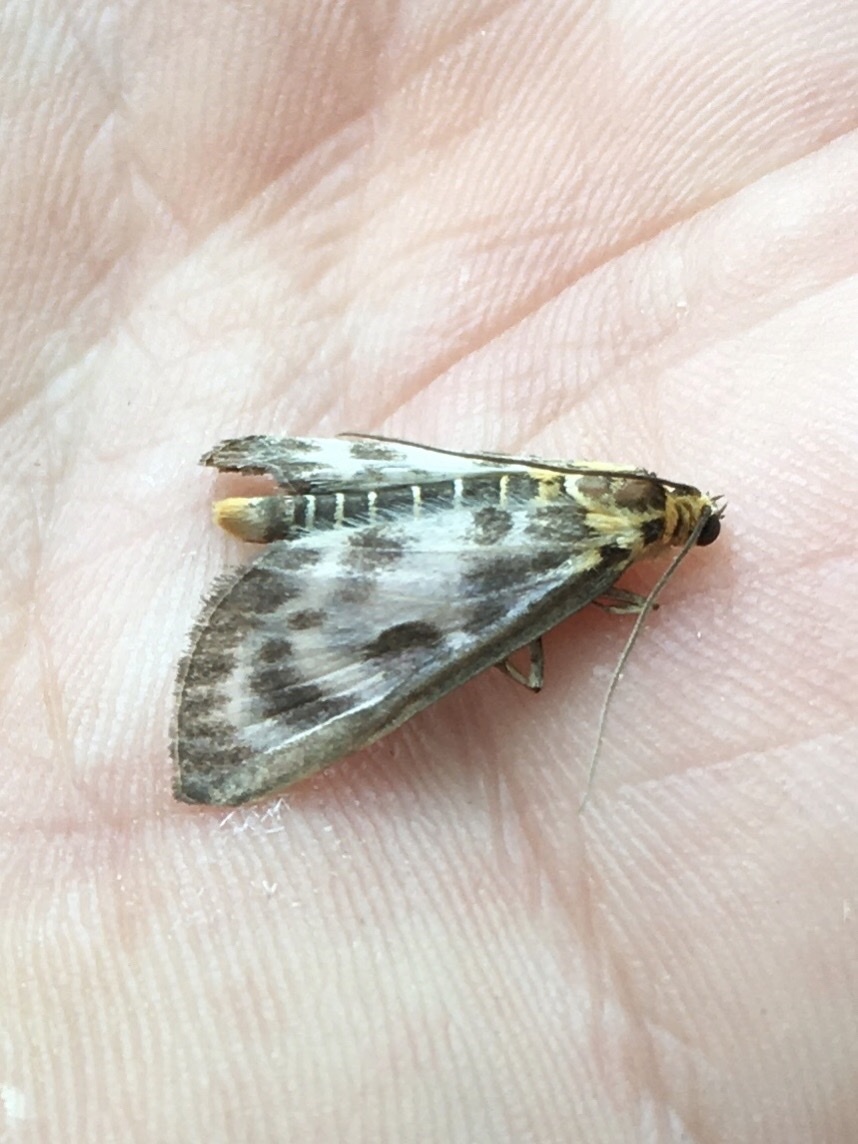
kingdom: Animalia
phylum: Arthropoda
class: Insecta
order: Lepidoptera
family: Crambidae
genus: Anania
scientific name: Anania hortulata
